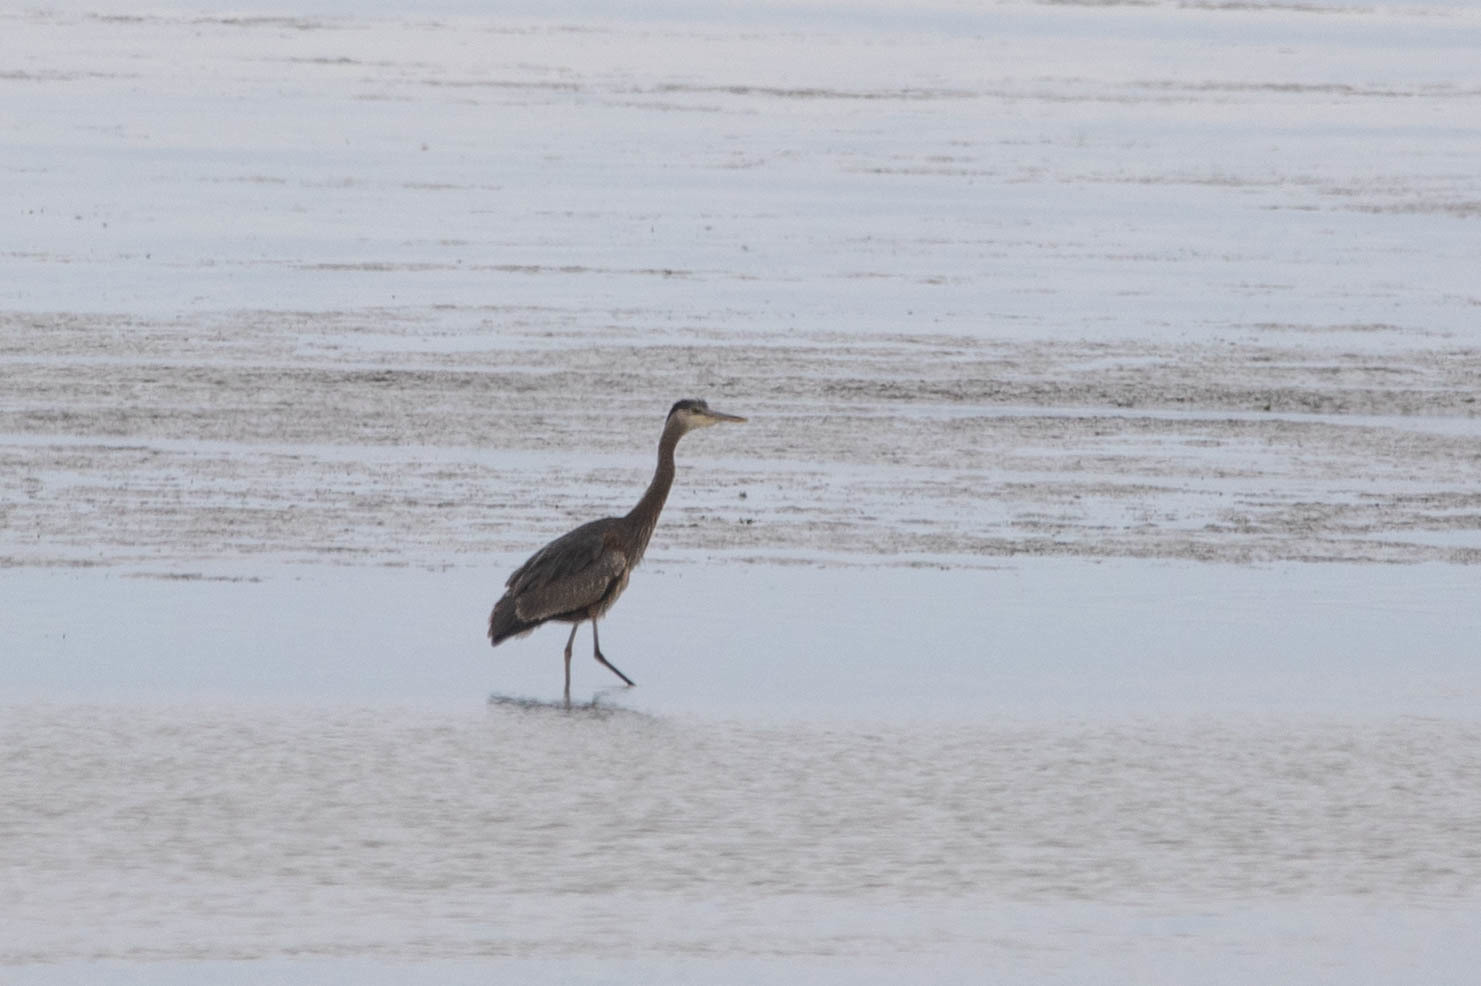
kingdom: Animalia
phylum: Chordata
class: Aves
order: Pelecaniformes
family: Ardeidae
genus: Ardea
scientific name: Ardea herodias
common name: Great blue heron
